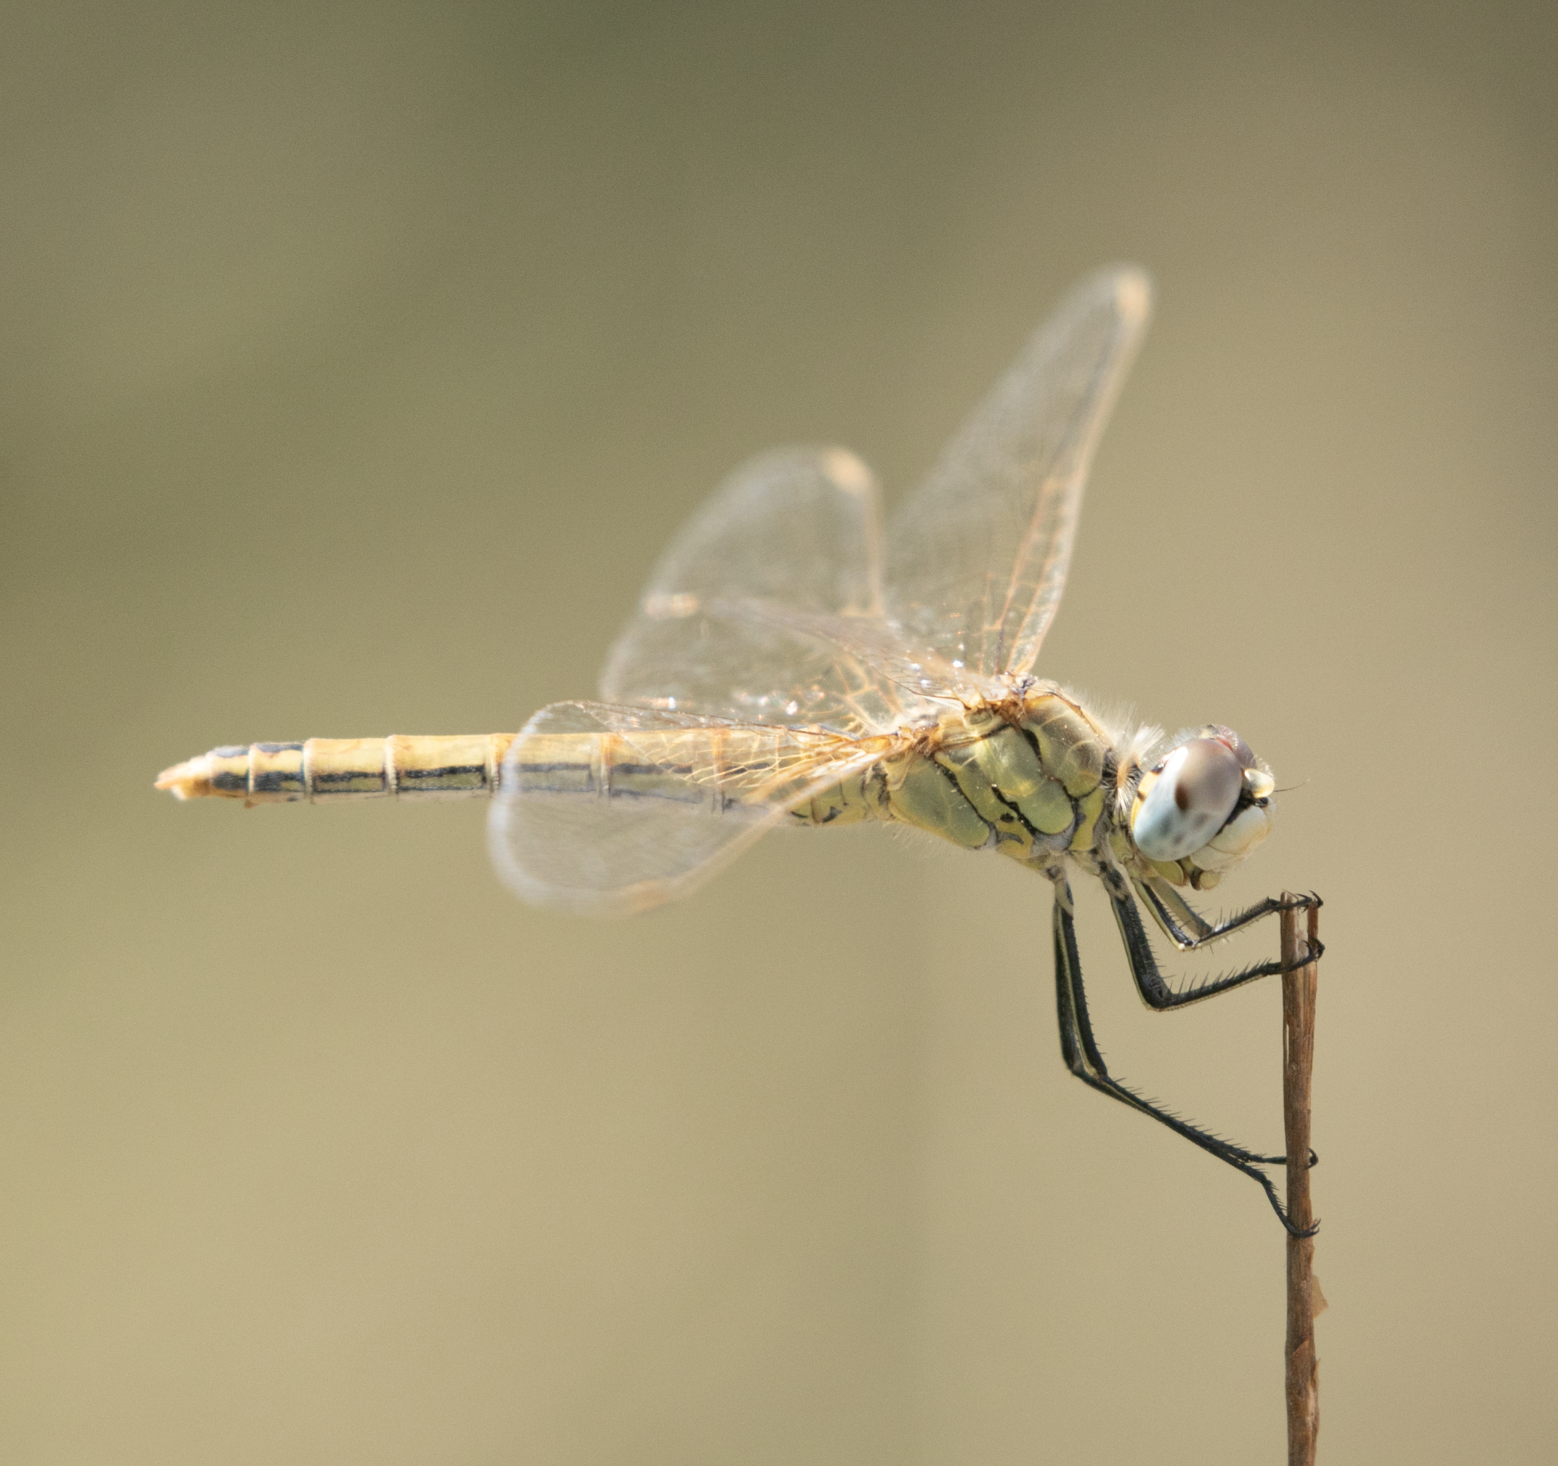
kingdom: Animalia
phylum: Arthropoda
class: Insecta
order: Odonata
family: Libellulidae
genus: Sympetrum
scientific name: Sympetrum fonscolombii
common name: Red-veined darter
